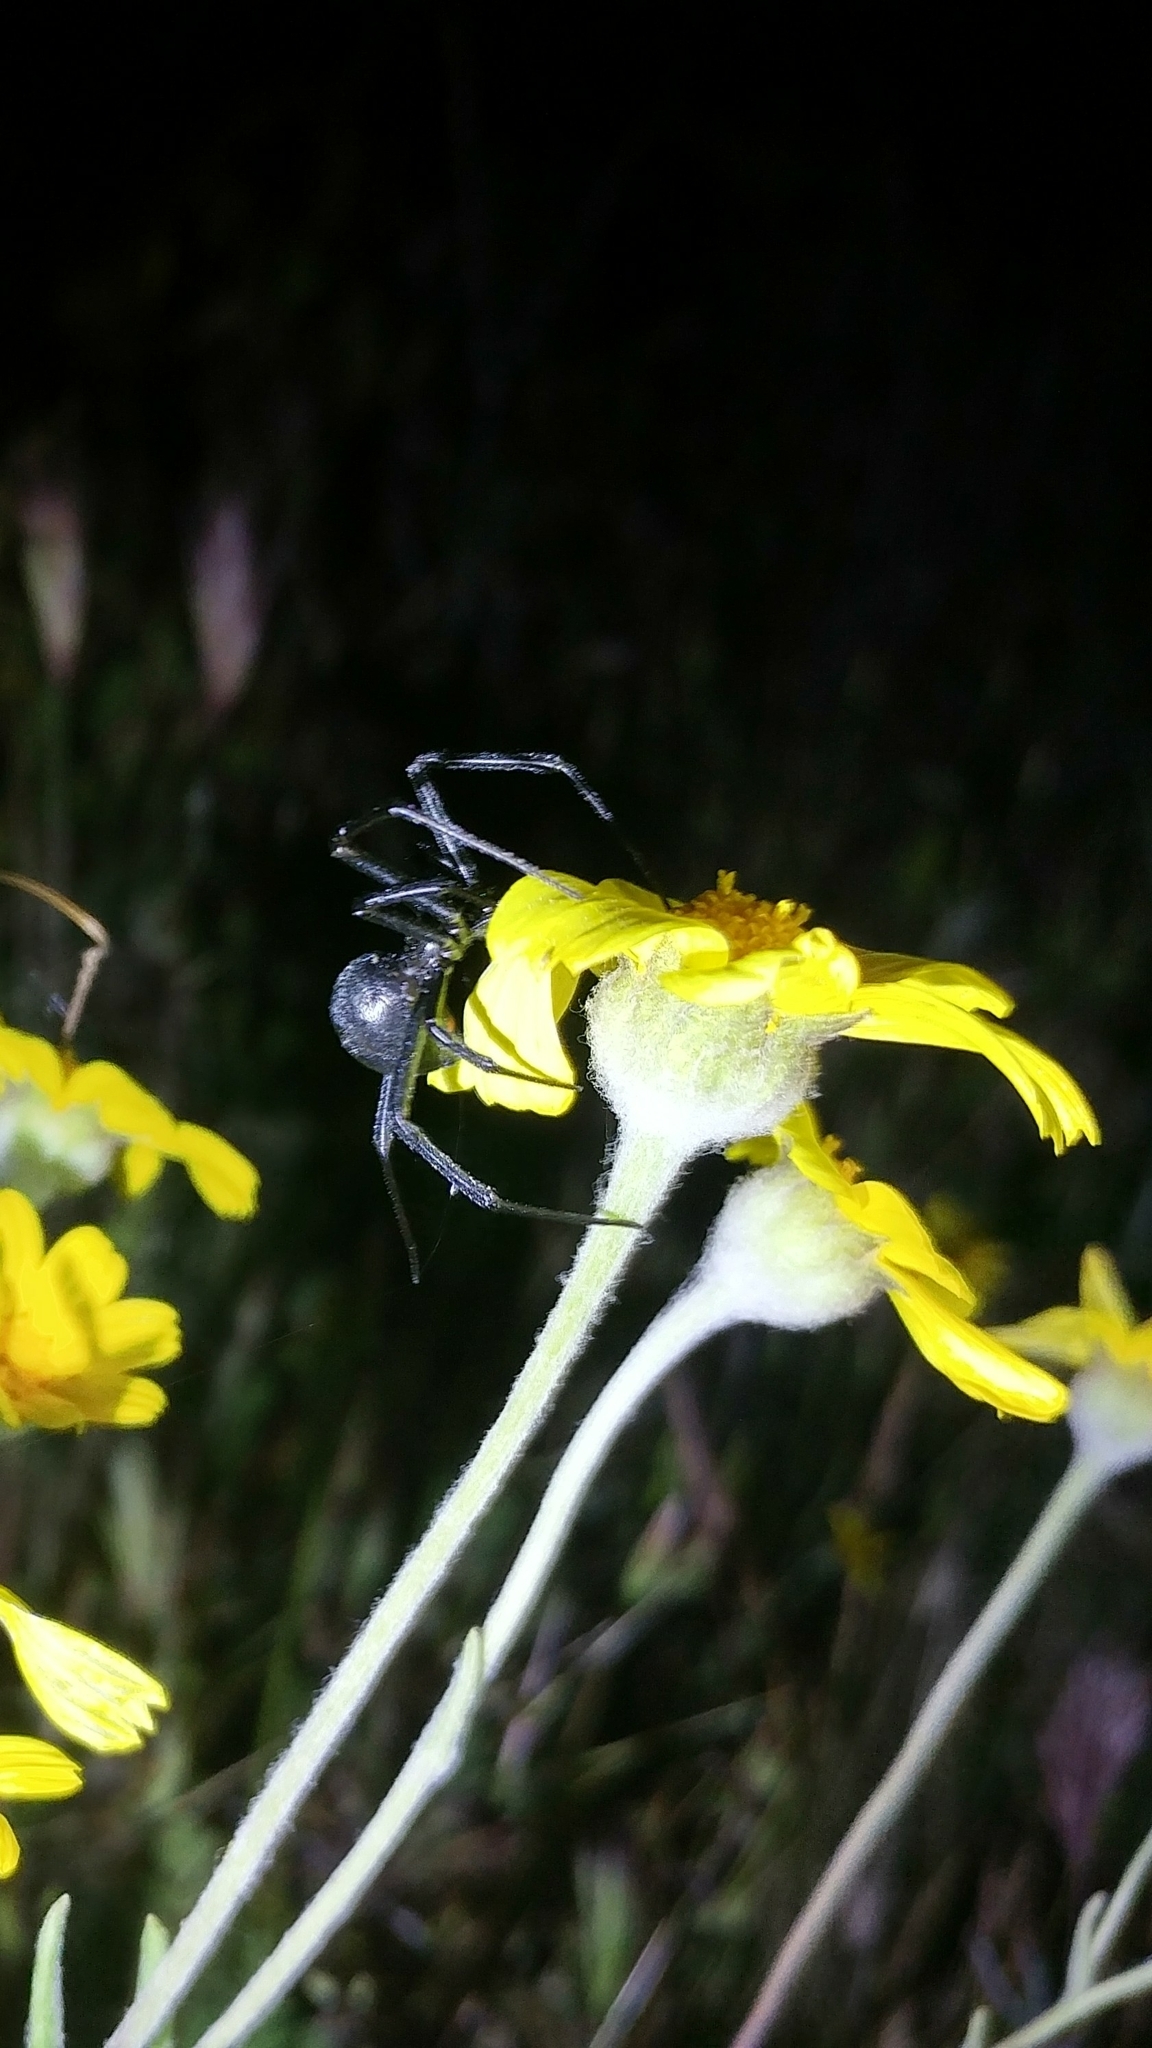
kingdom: Animalia
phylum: Arthropoda
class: Arachnida
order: Araneae
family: Theridiidae
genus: Latrodectus
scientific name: Latrodectus hesperus
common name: Western black widow
